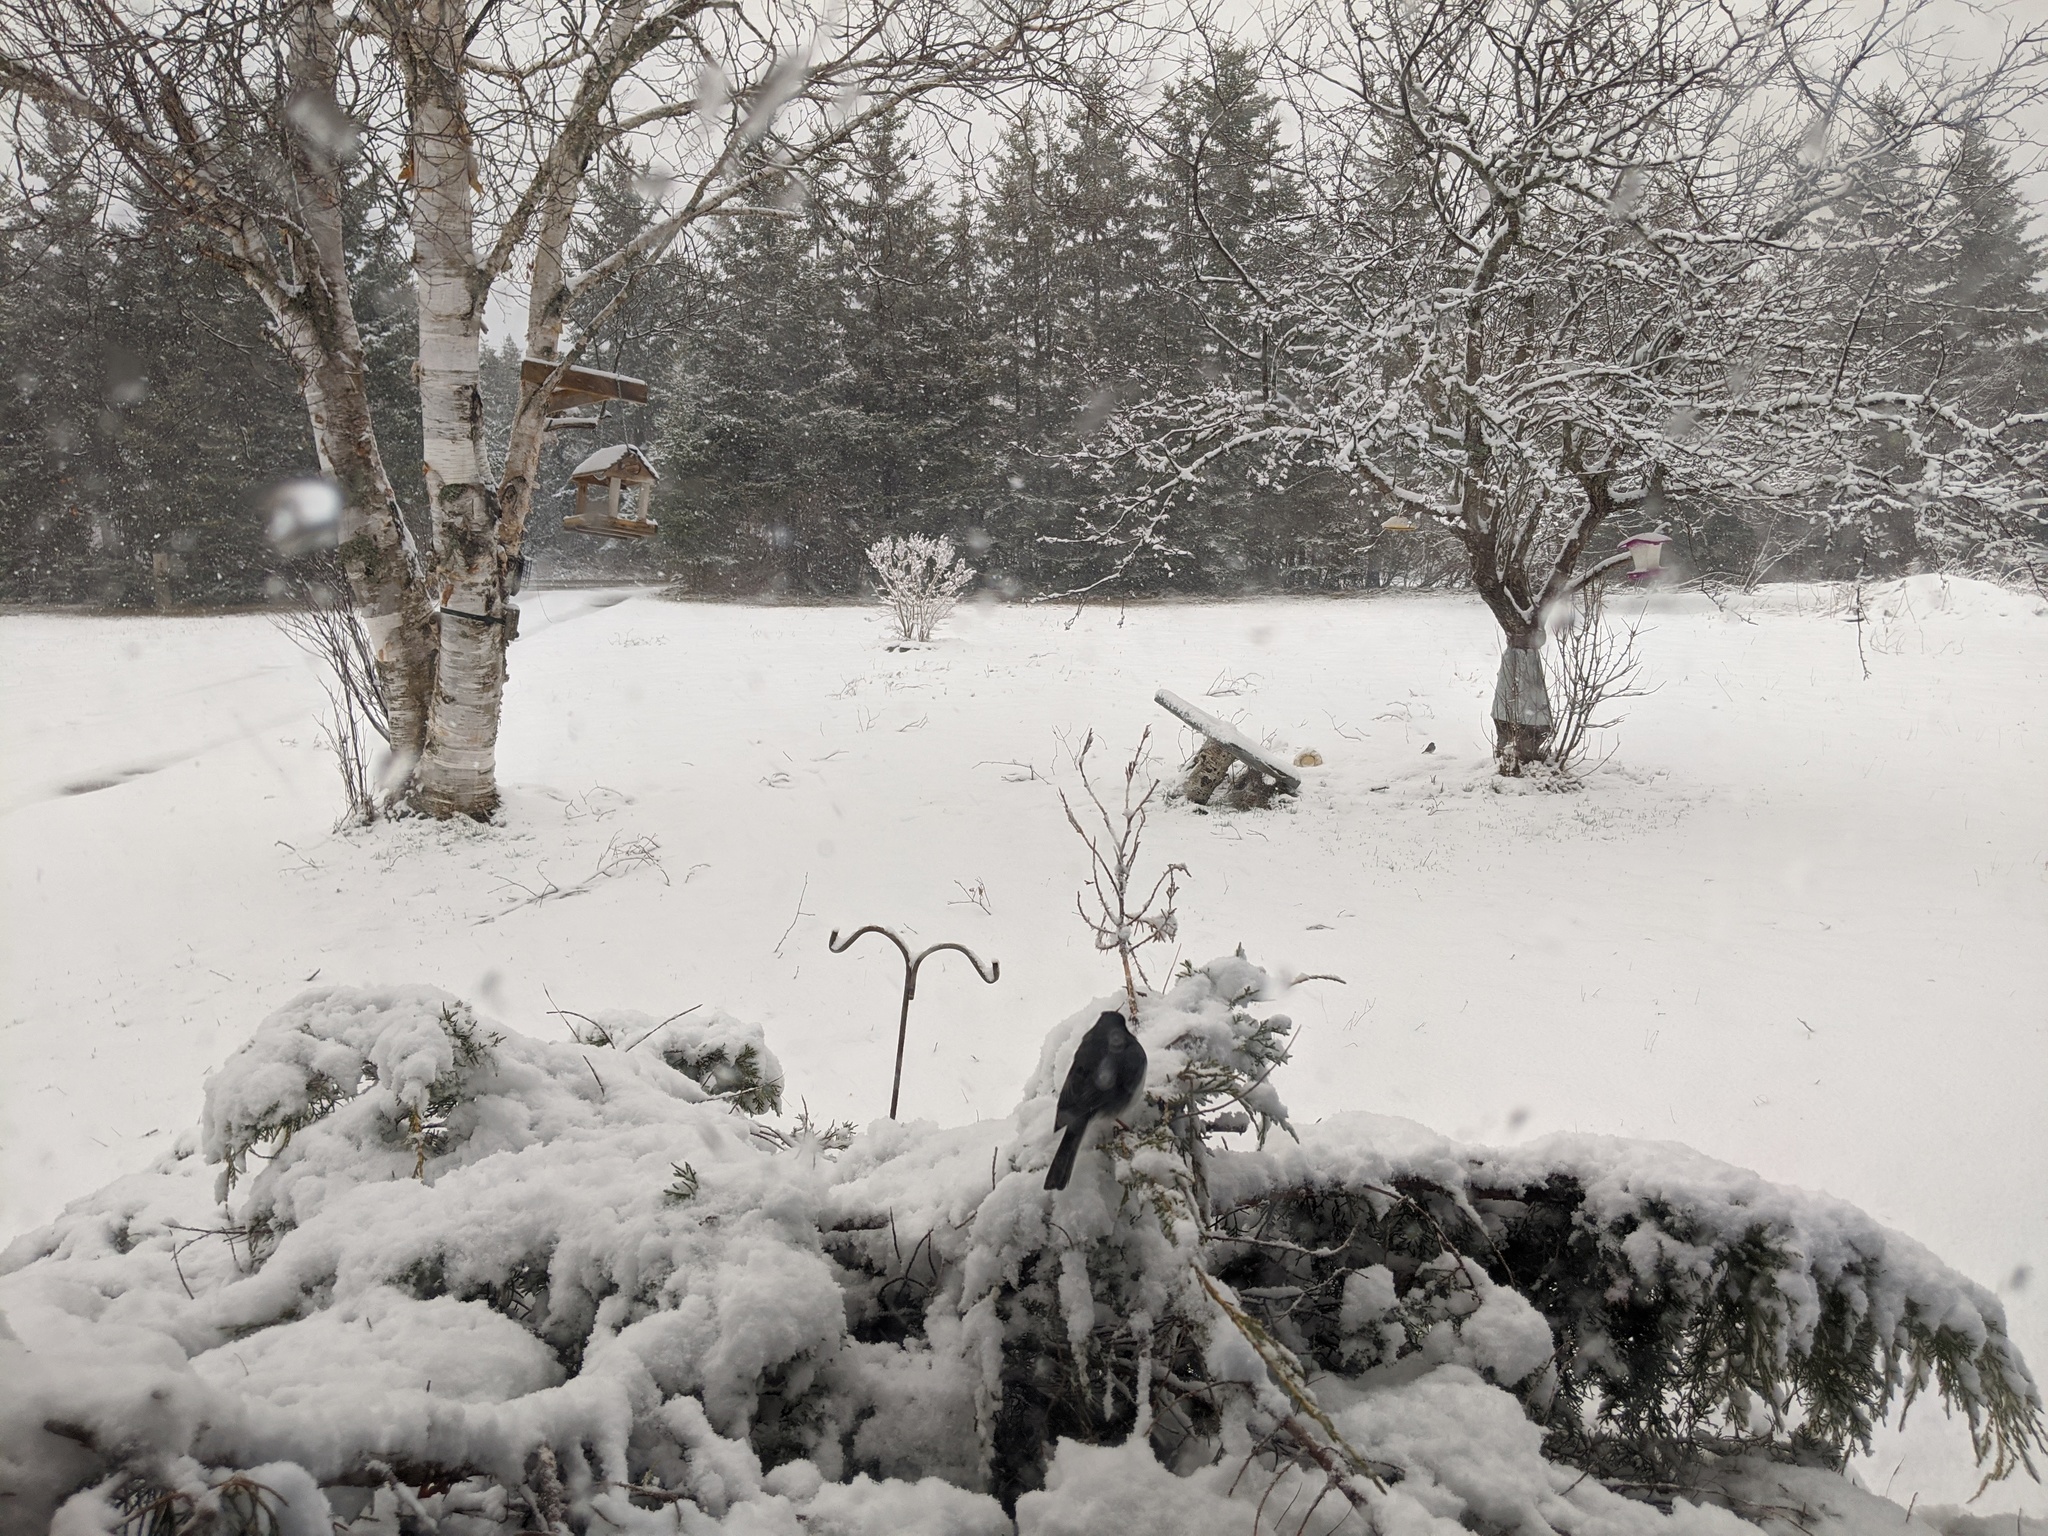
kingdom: Animalia
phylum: Chordata
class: Aves
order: Passeriformes
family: Passerellidae
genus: Junco
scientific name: Junco hyemalis
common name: Dark-eyed junco
